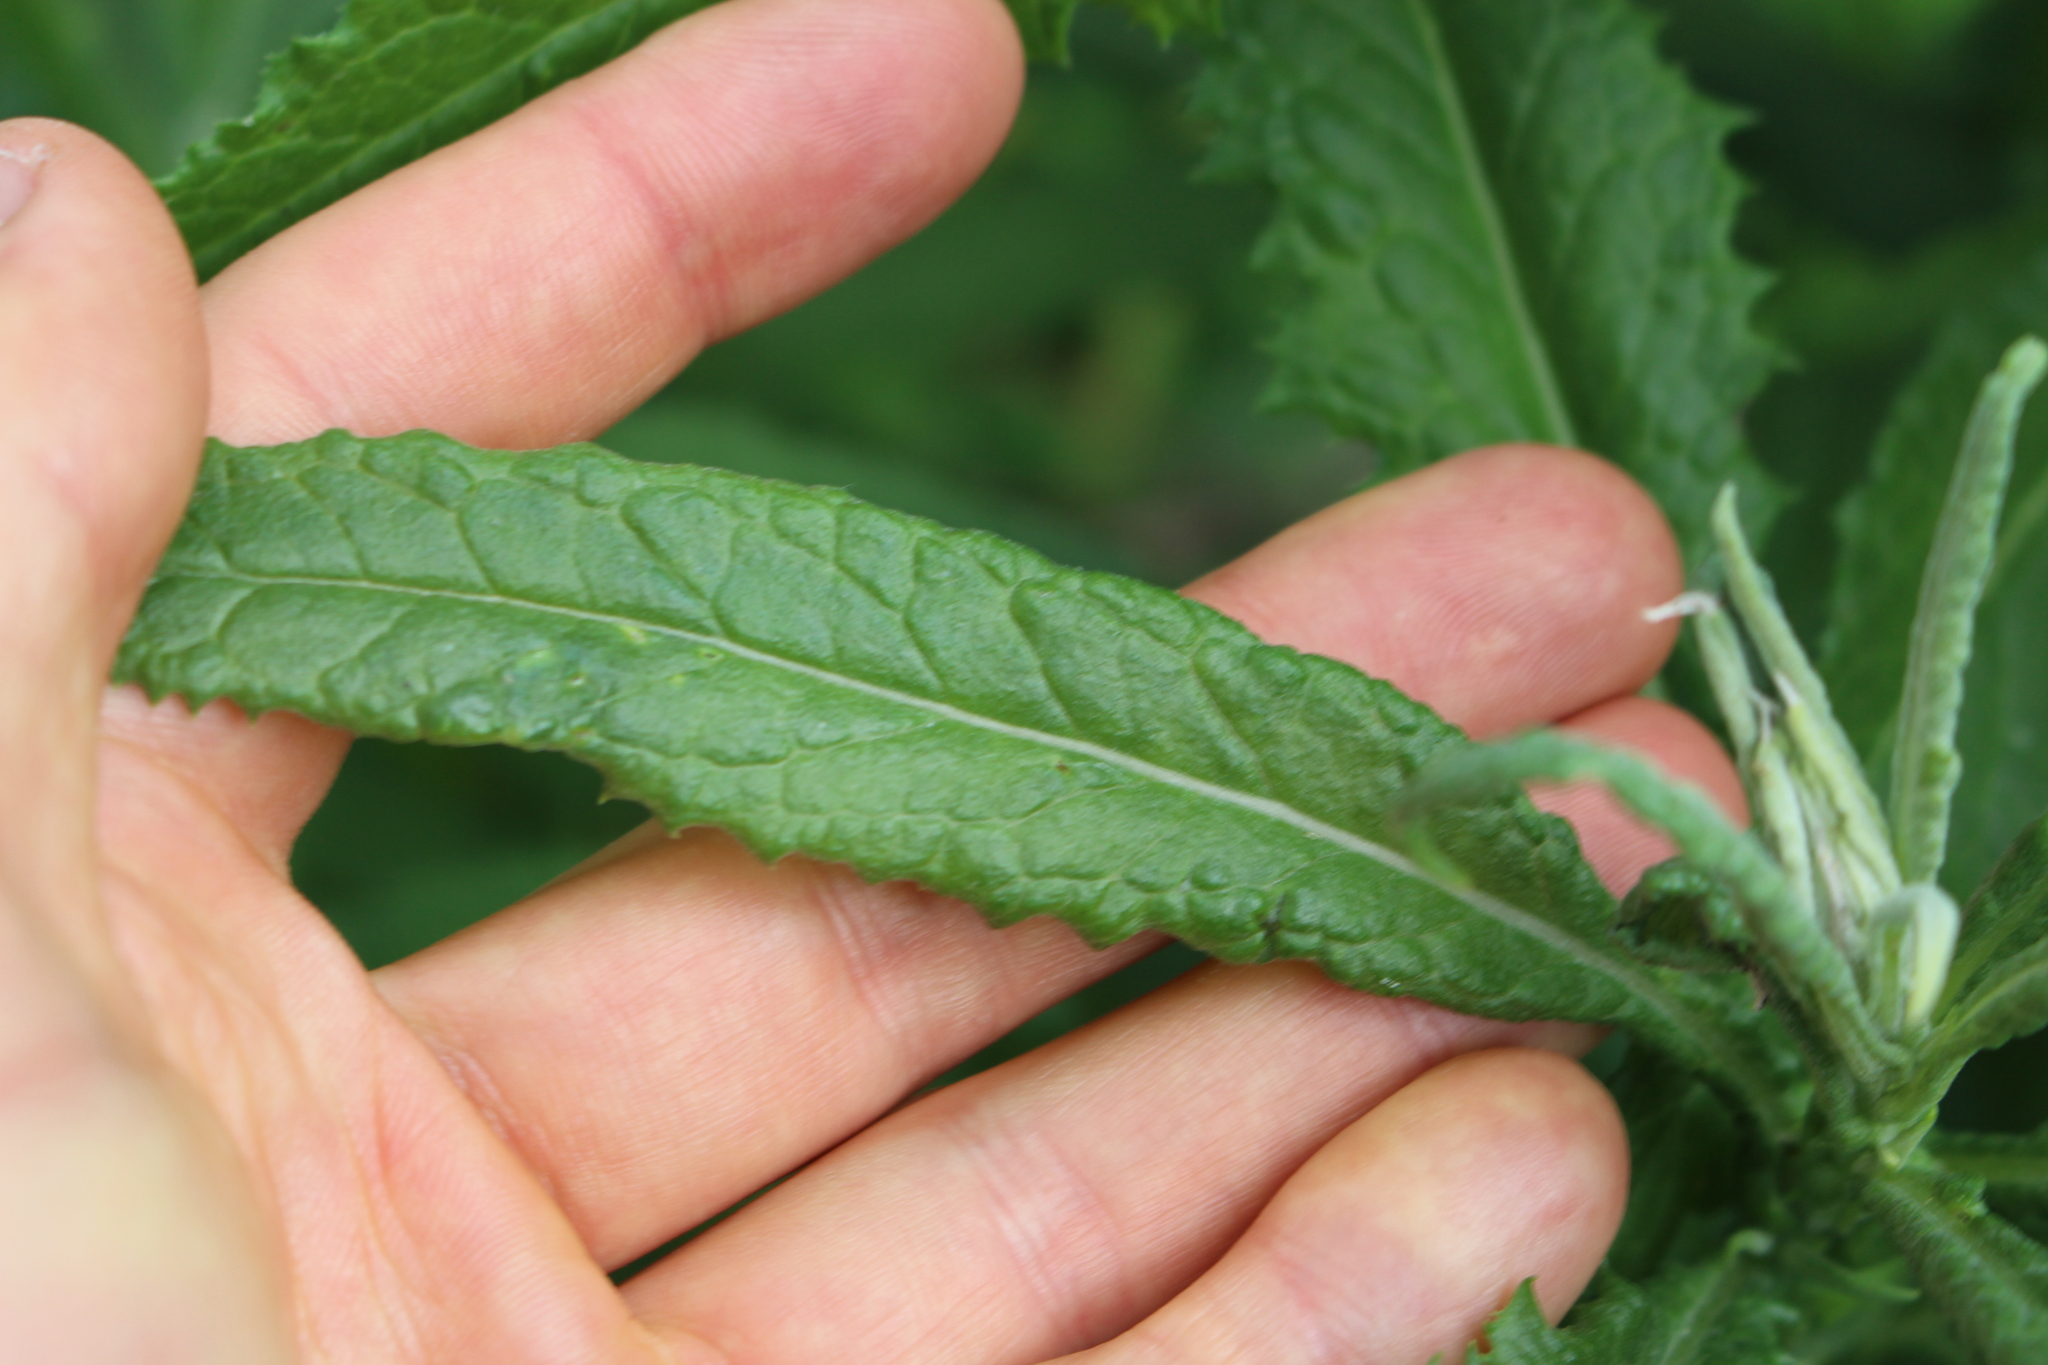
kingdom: Plantae
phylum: Tracheophyta
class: Magnoliopsida
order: Asterales
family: Asteraceae
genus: Senecio
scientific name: Senecio minimus
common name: Toothed fireweed
